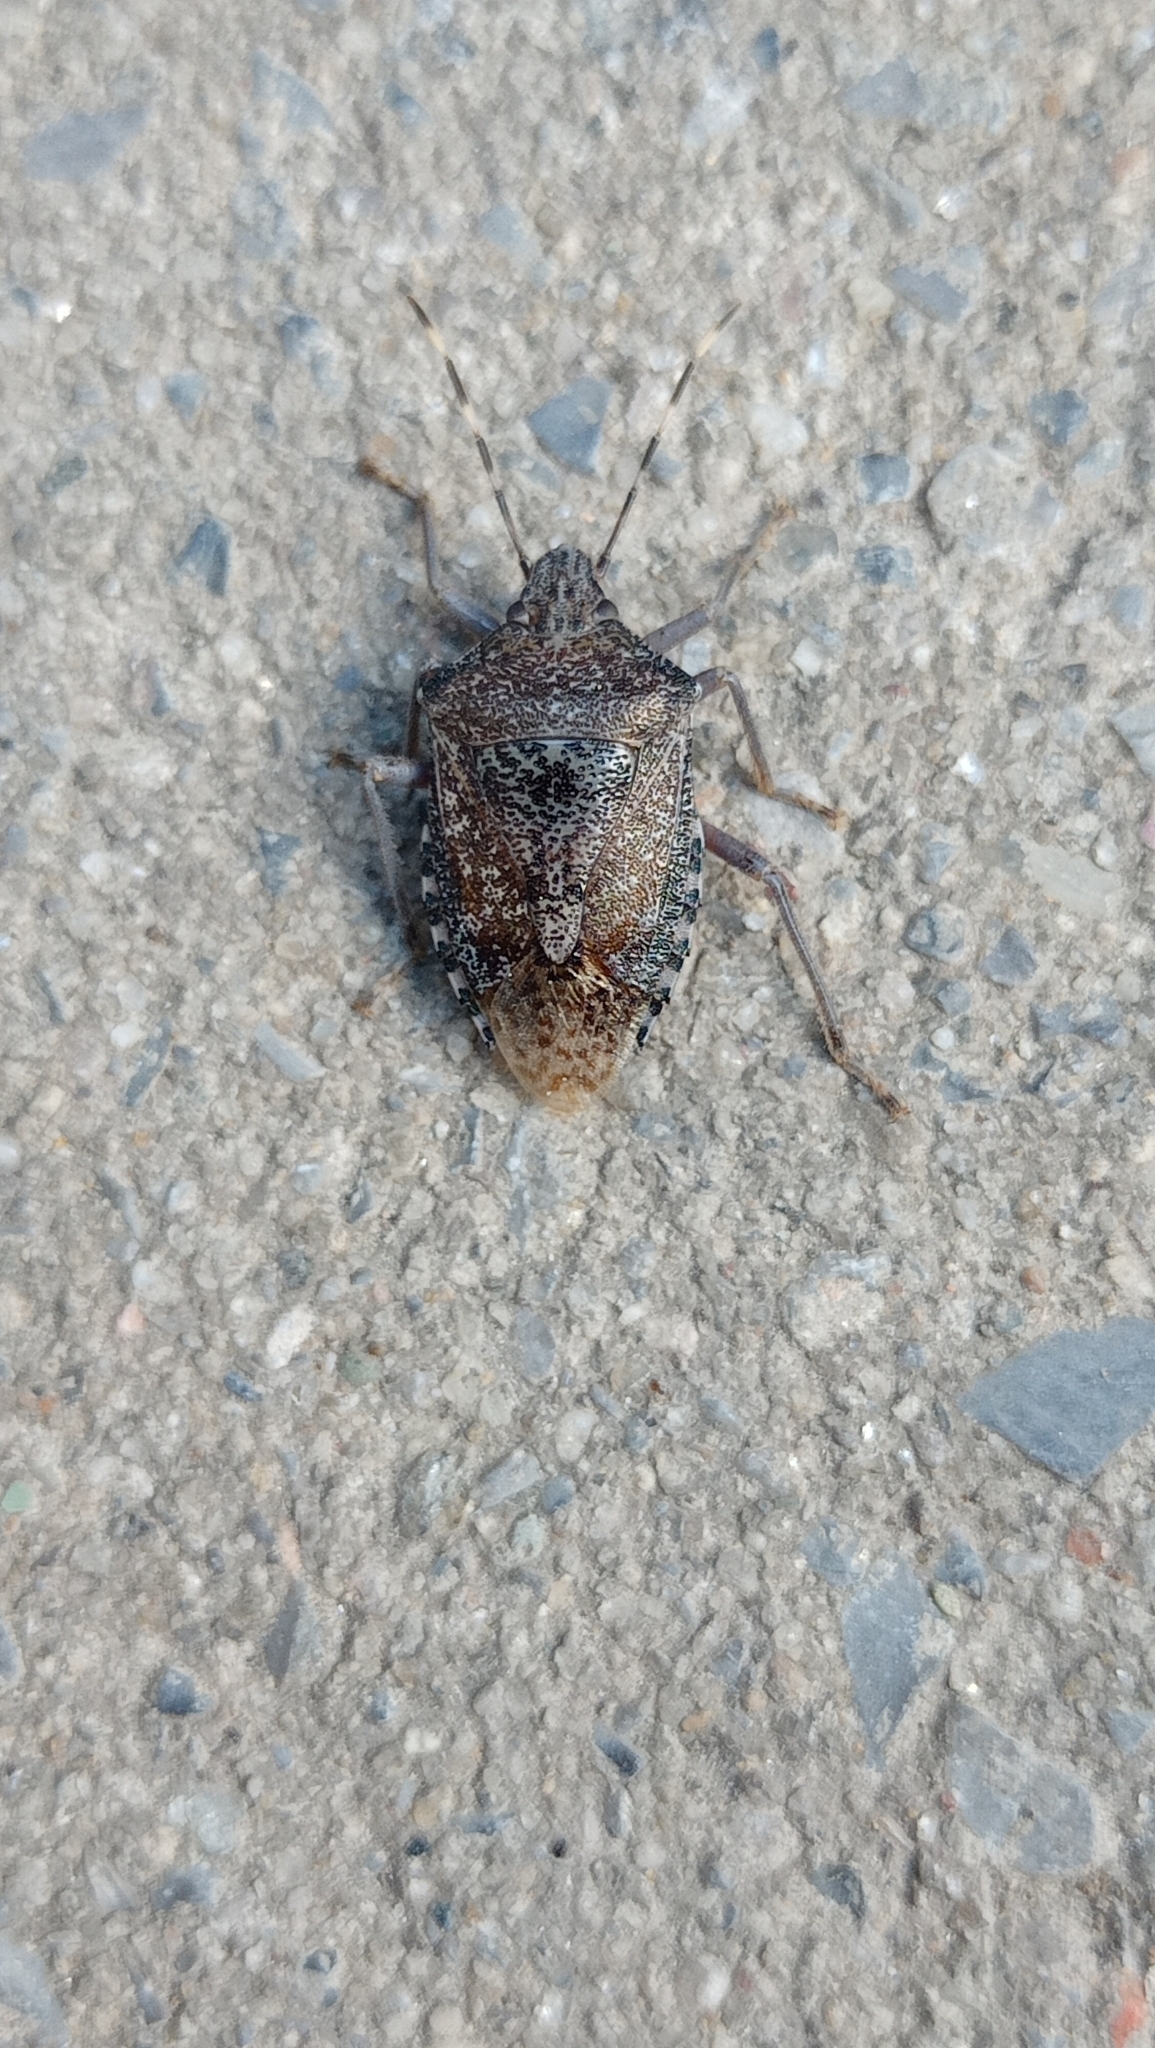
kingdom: Animalia
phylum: Arthropoda
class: Insecta
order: Hemiptera
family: Pentatomidae
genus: Rhaphigaster
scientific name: Rhaphigaster nebulosa
